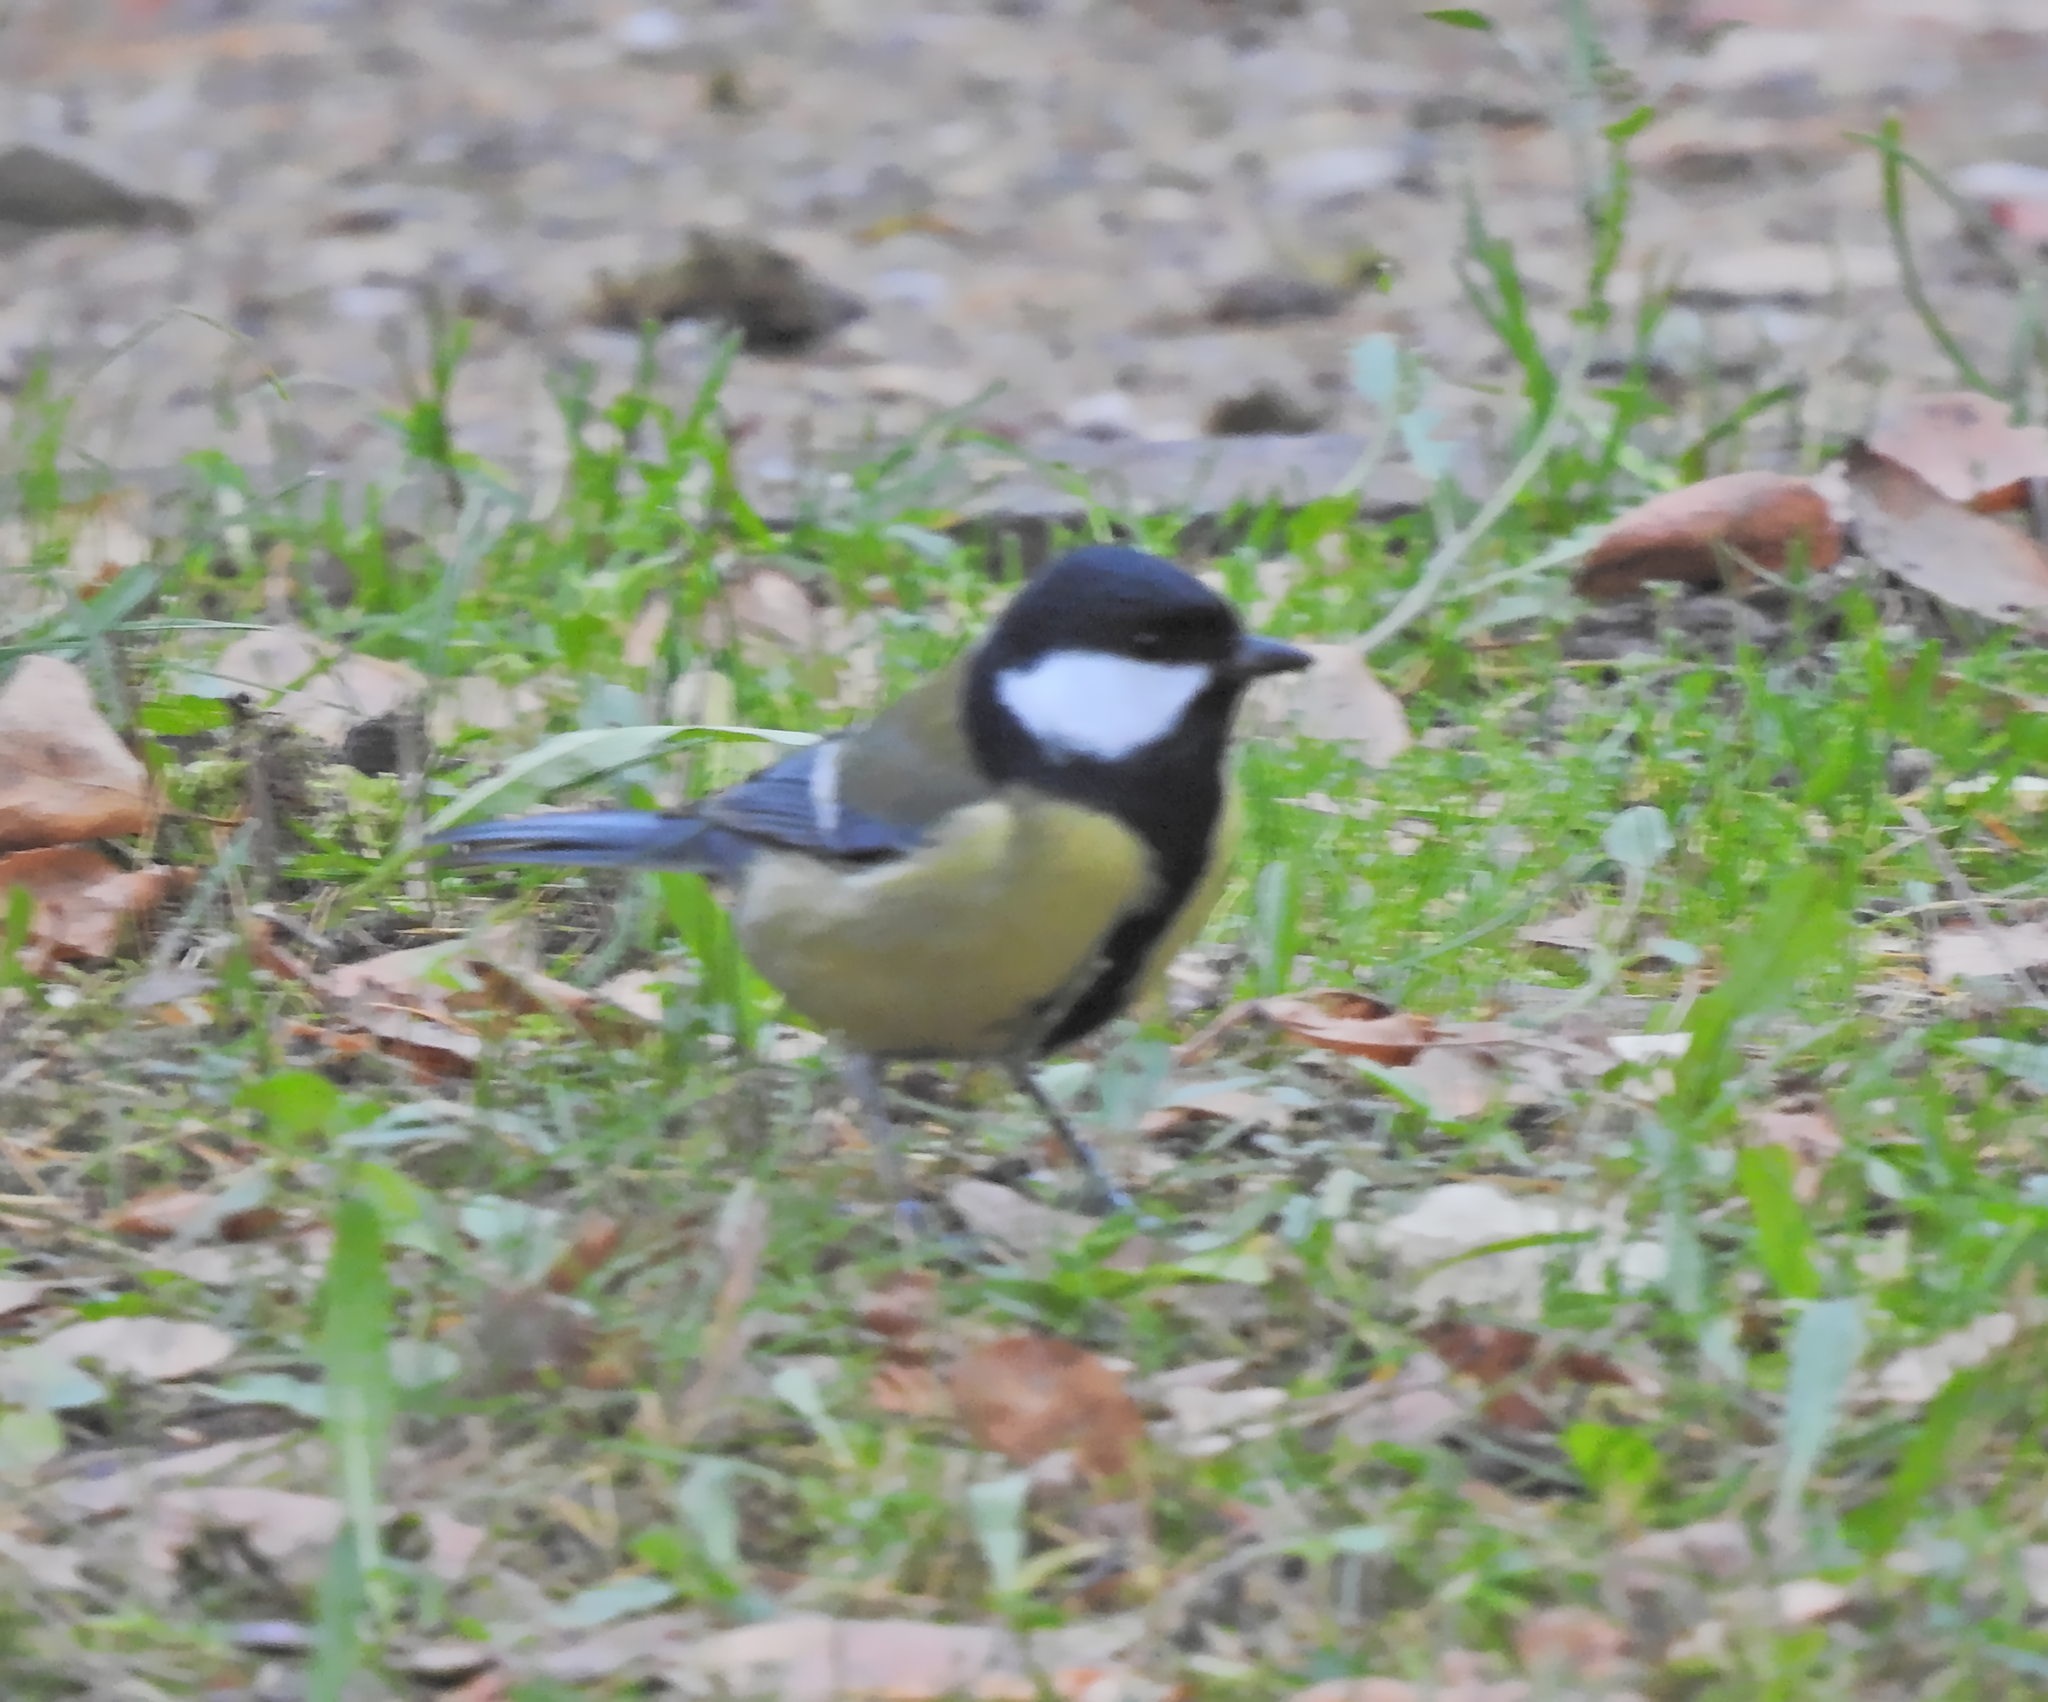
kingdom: Animalia
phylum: Chordata
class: Aves
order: Passeriformes
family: Paridae
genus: Parus
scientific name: Parus major
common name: Great tit
